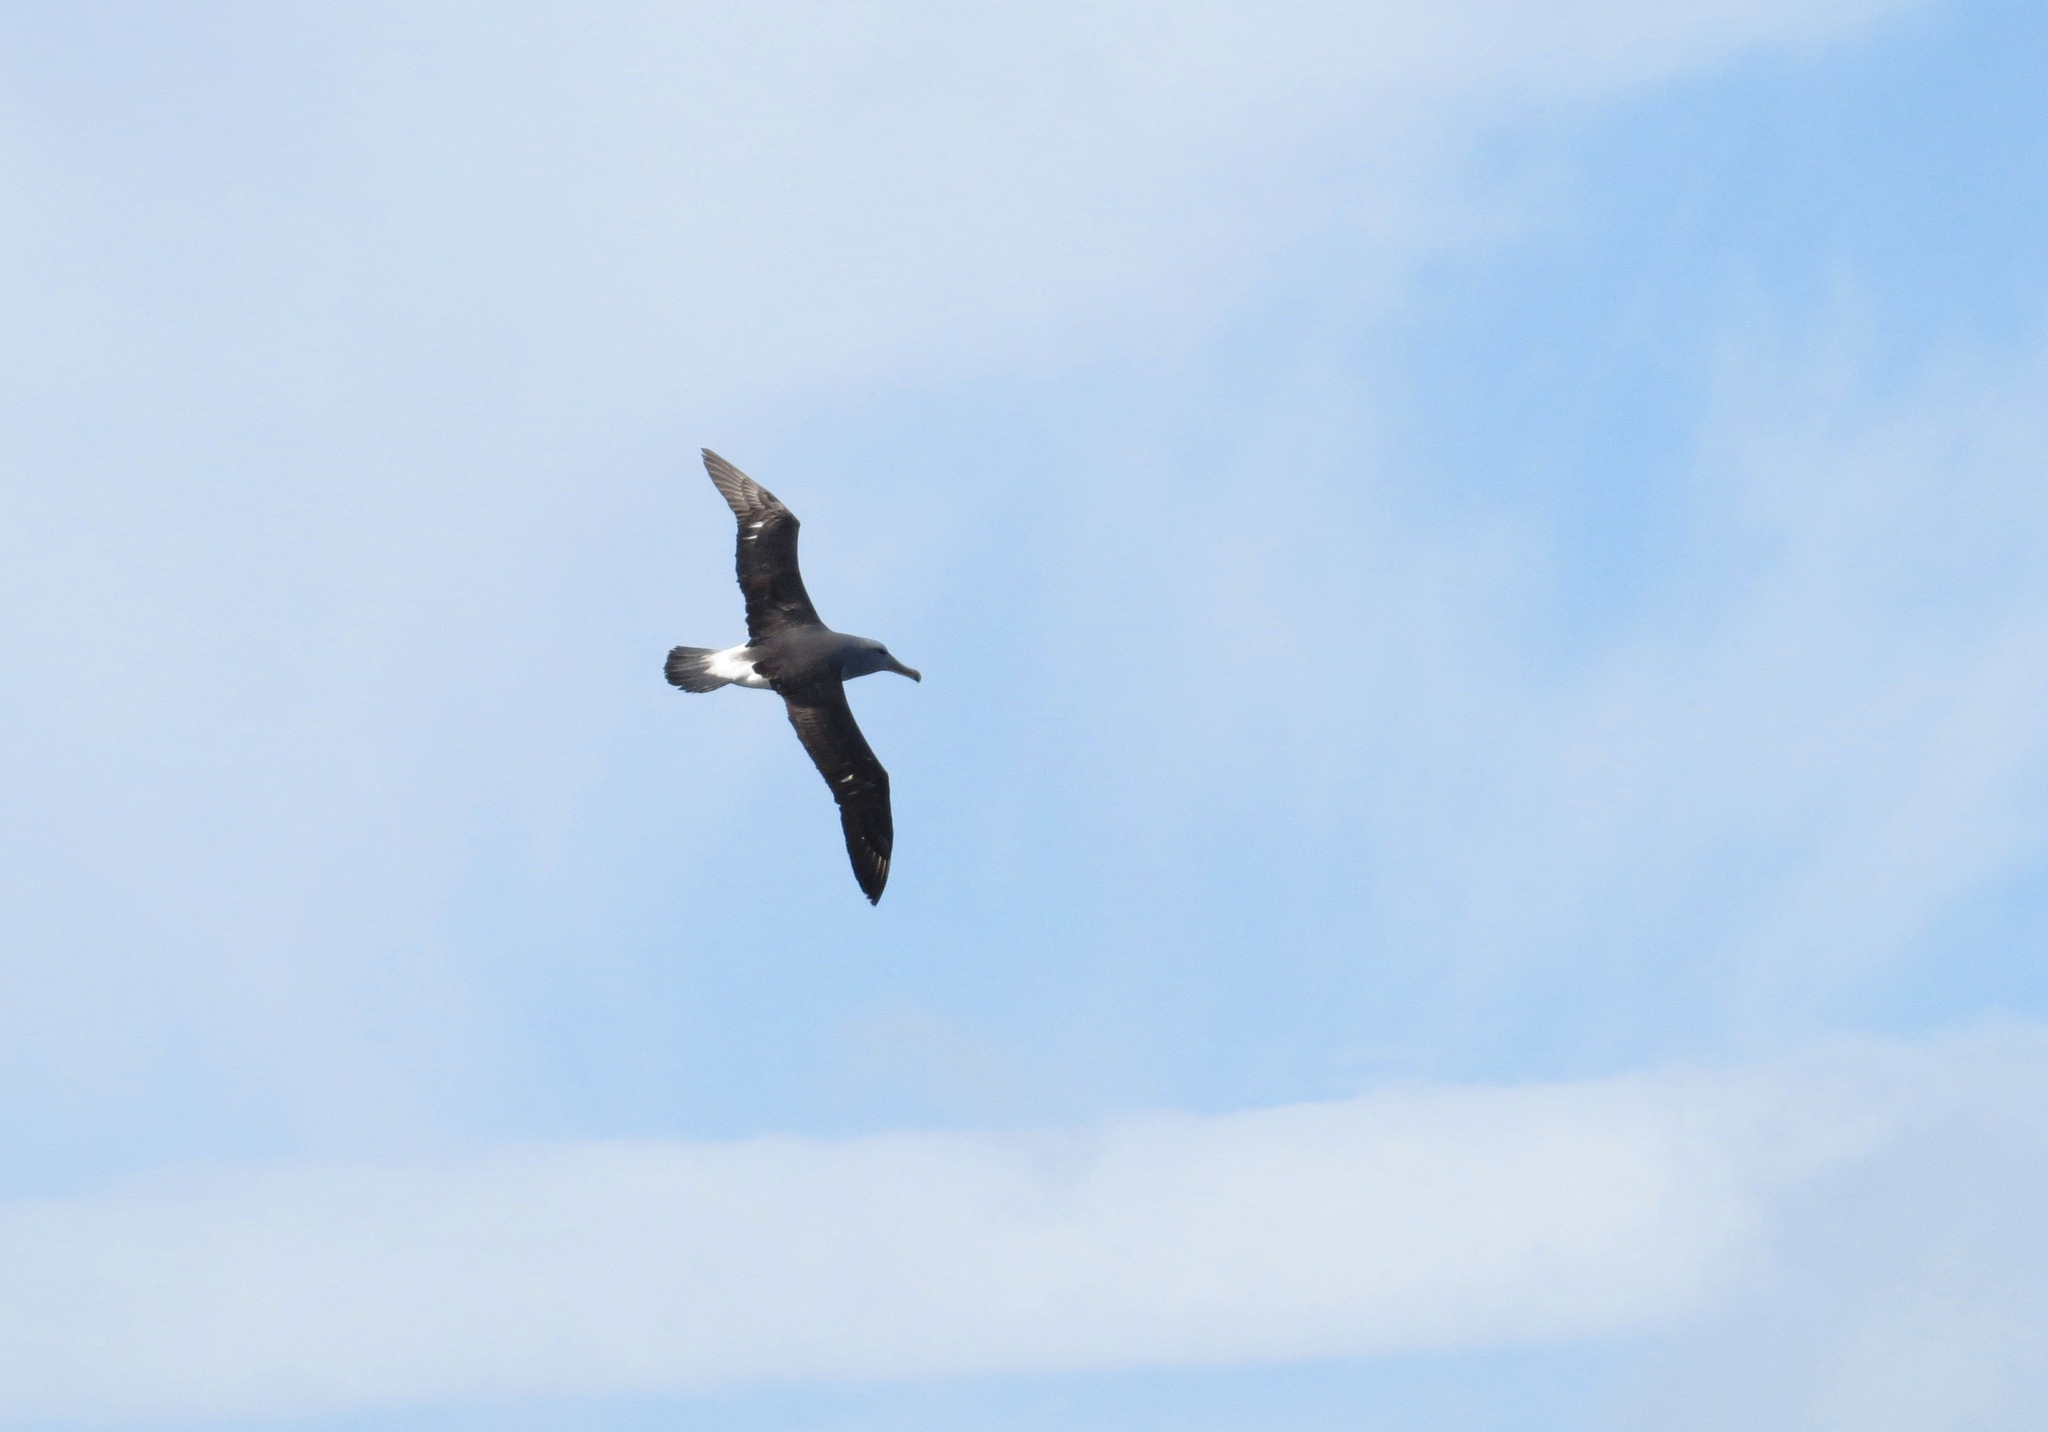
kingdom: Animalia
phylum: Chordata
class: Aves
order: Procellariiformes
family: Diomedeidae
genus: Thalassarche
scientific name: Thalassarche salvini
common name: Salvin's albatross
